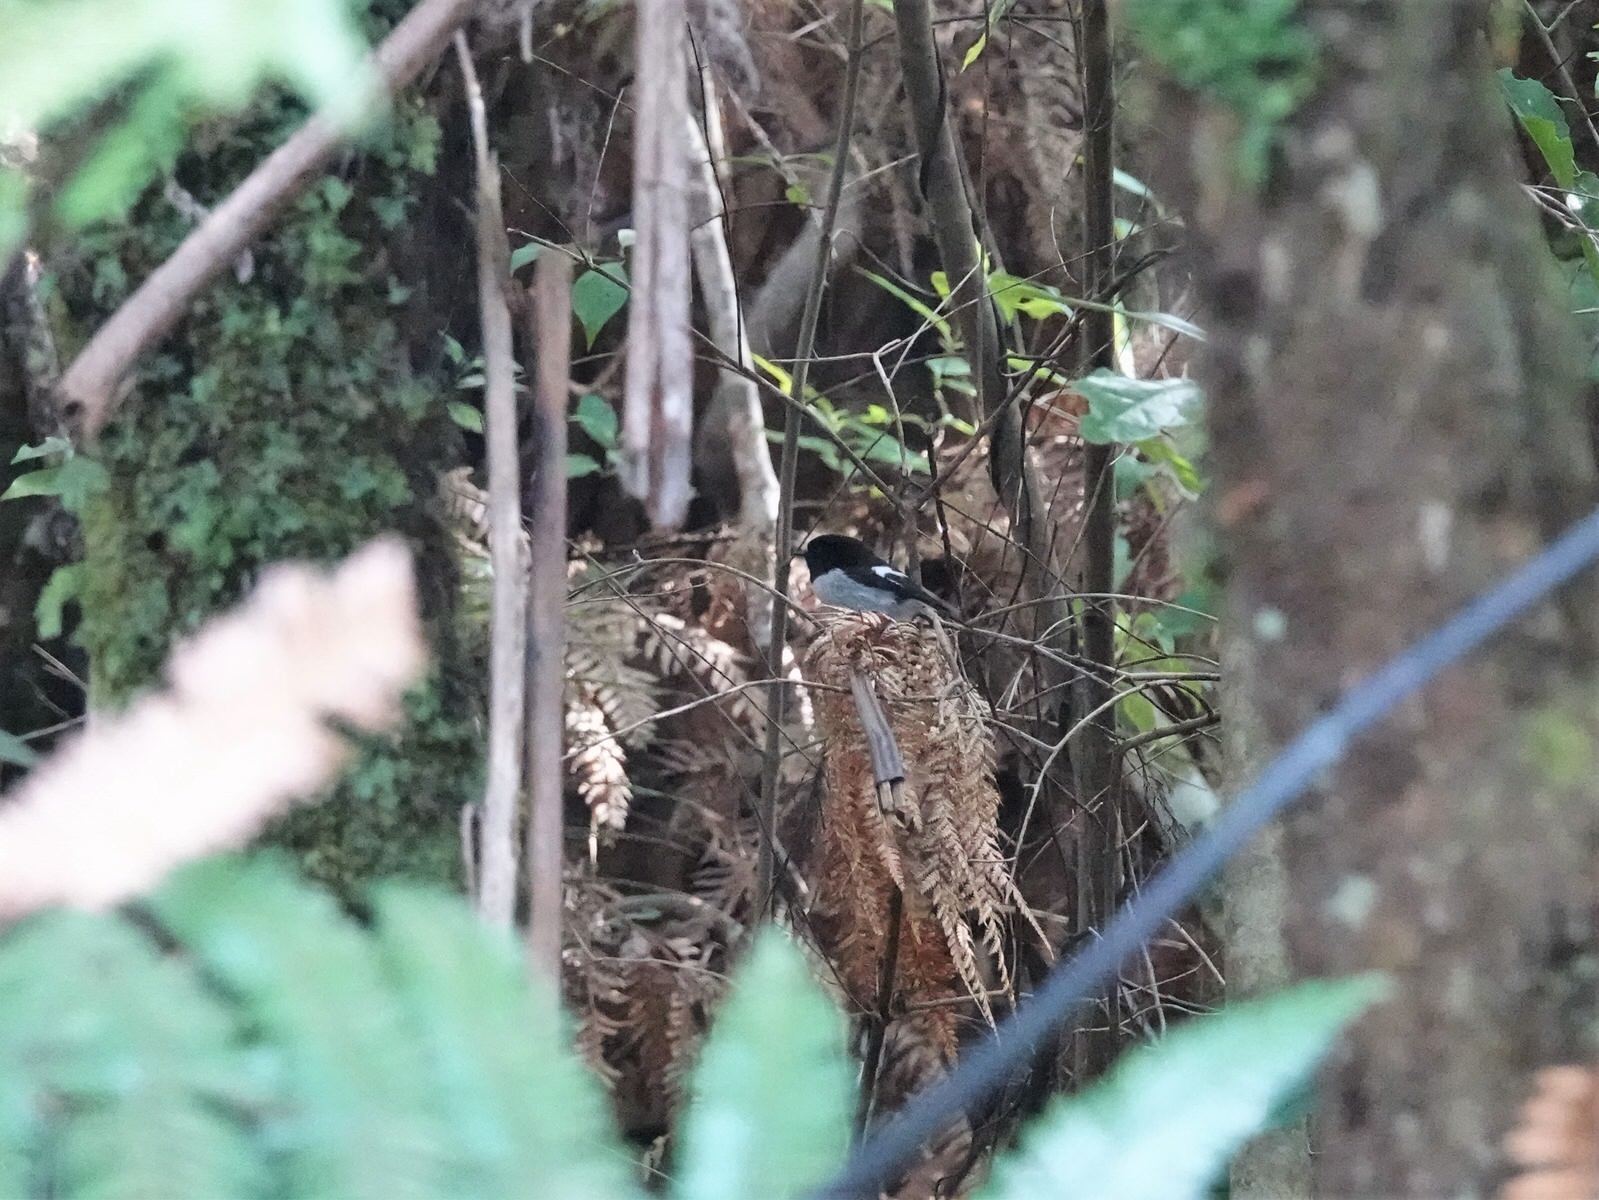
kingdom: Animalia
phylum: Chordata
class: Aves
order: Passeriformes
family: Petroicidae
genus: Petroica
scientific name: Petroica macrocephala
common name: Tomtit
